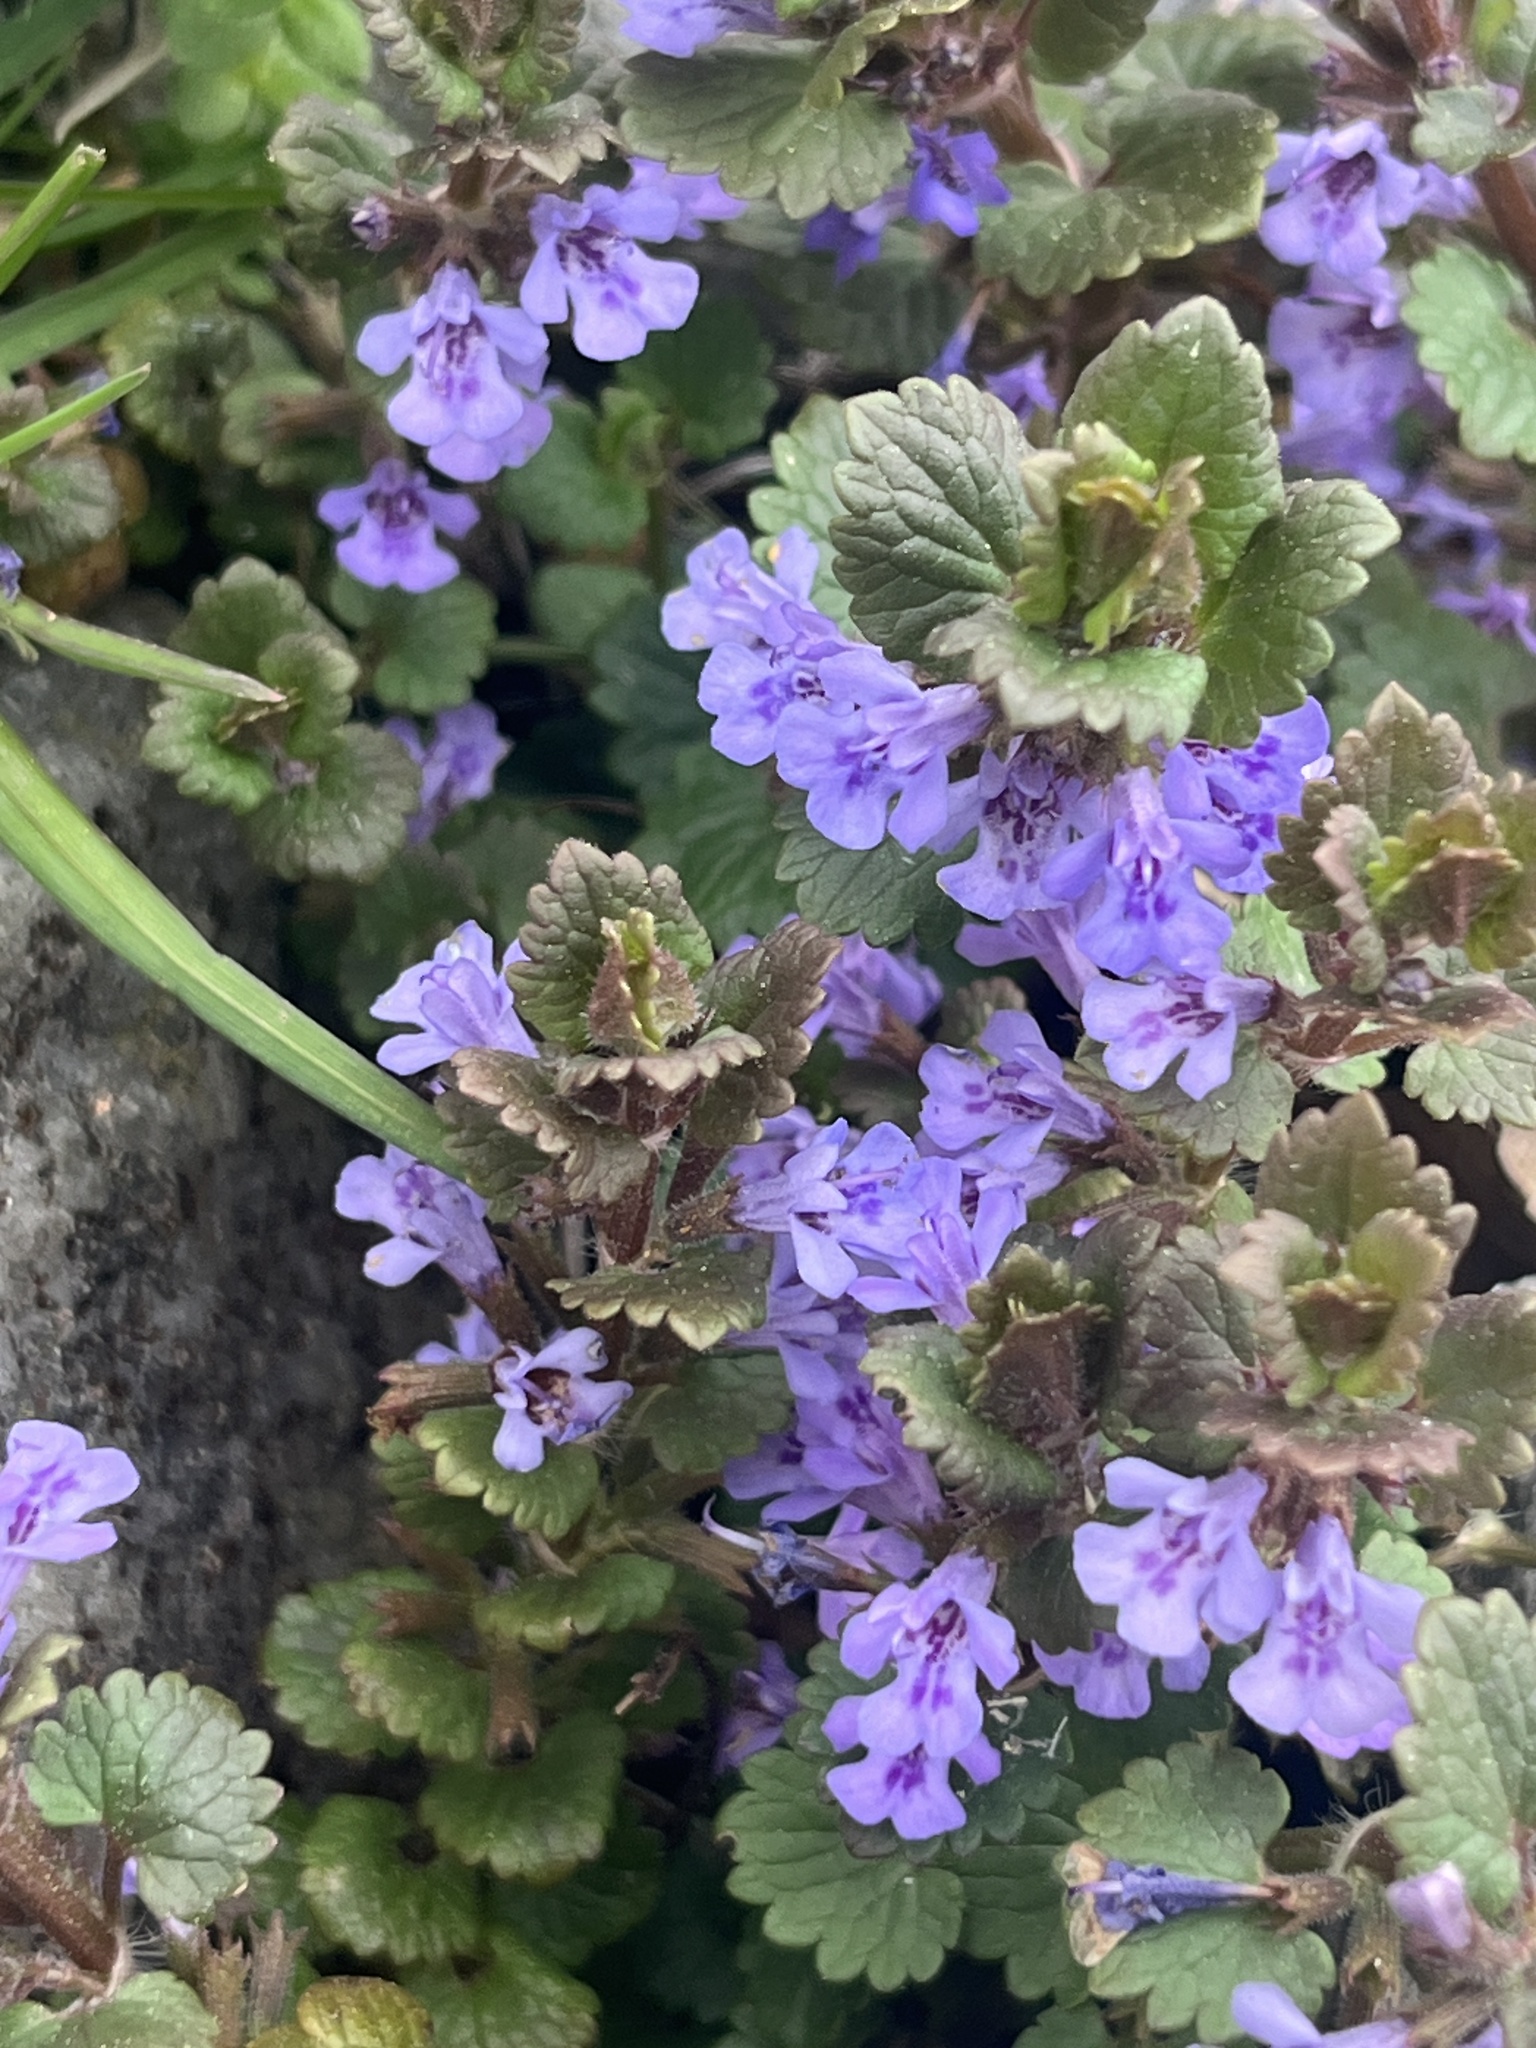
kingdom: Plantae
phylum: Tracheophyta
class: Magnoliopsida
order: Lamiales
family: Lamiaceae
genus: Glechoma
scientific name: Glechoma hederacea
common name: Ground ivy
